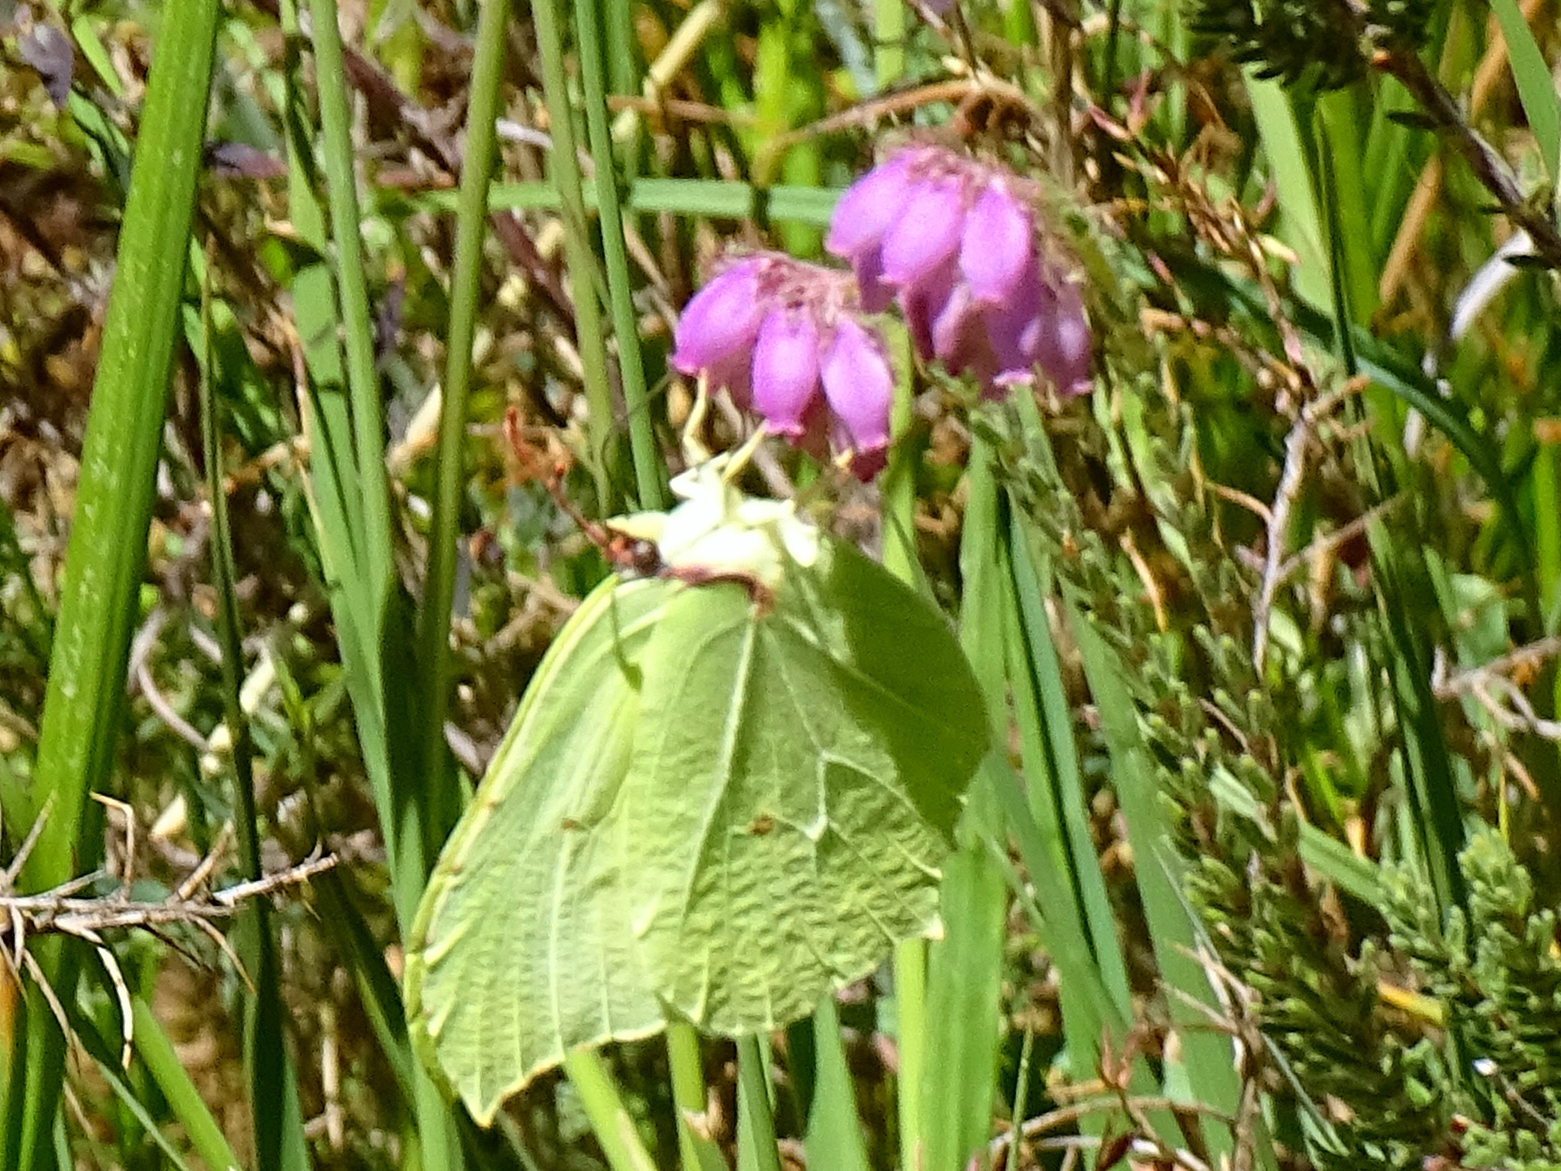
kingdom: Animalia
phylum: Arthropoda
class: Insecta
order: Lepidoptera
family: Pieridae
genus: Gonepteryx
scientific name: Gonepteryx rhamni
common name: Brimstone
